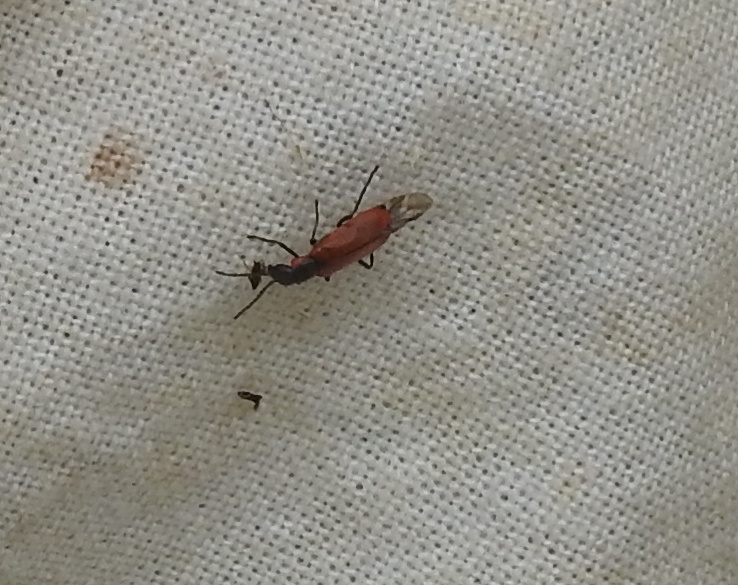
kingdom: Animalia
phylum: Arthropoda
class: Insecta
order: Coleoptera
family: Melyridae
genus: Anthocomus
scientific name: Anthocomus rufus
